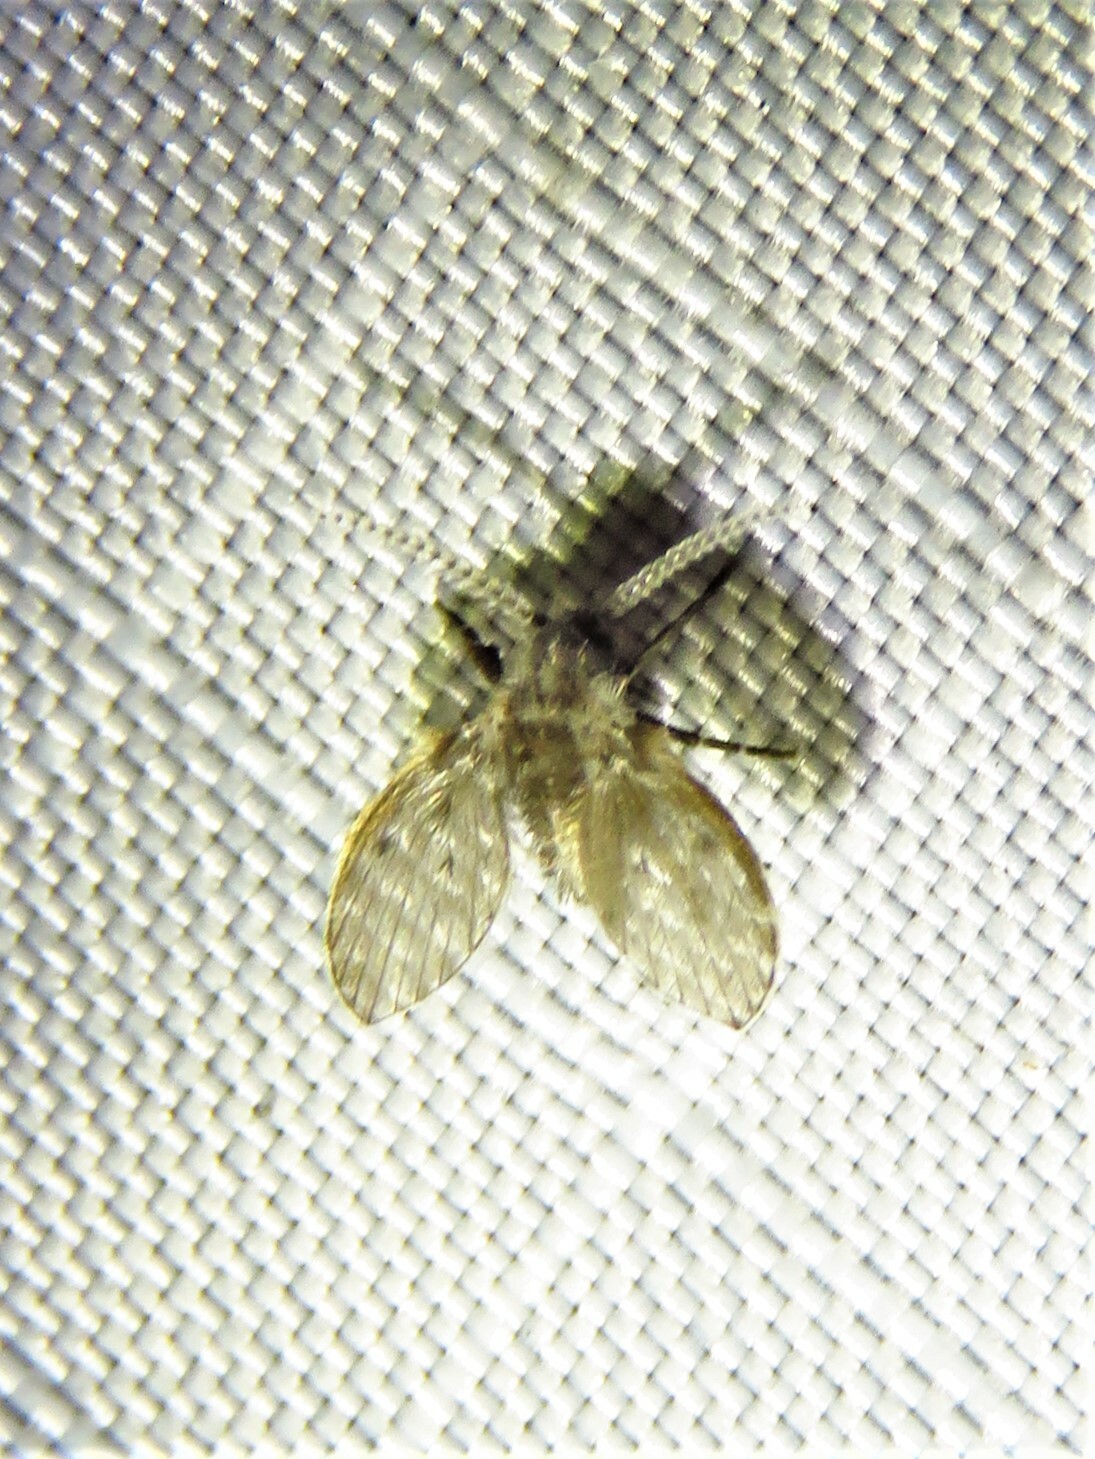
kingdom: Animalia
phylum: Arthropoda
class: Insecta
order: Diptera
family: Psychodidae
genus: Clogmia
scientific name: Clogmia albipunctatus
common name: White-spotted moth fly
